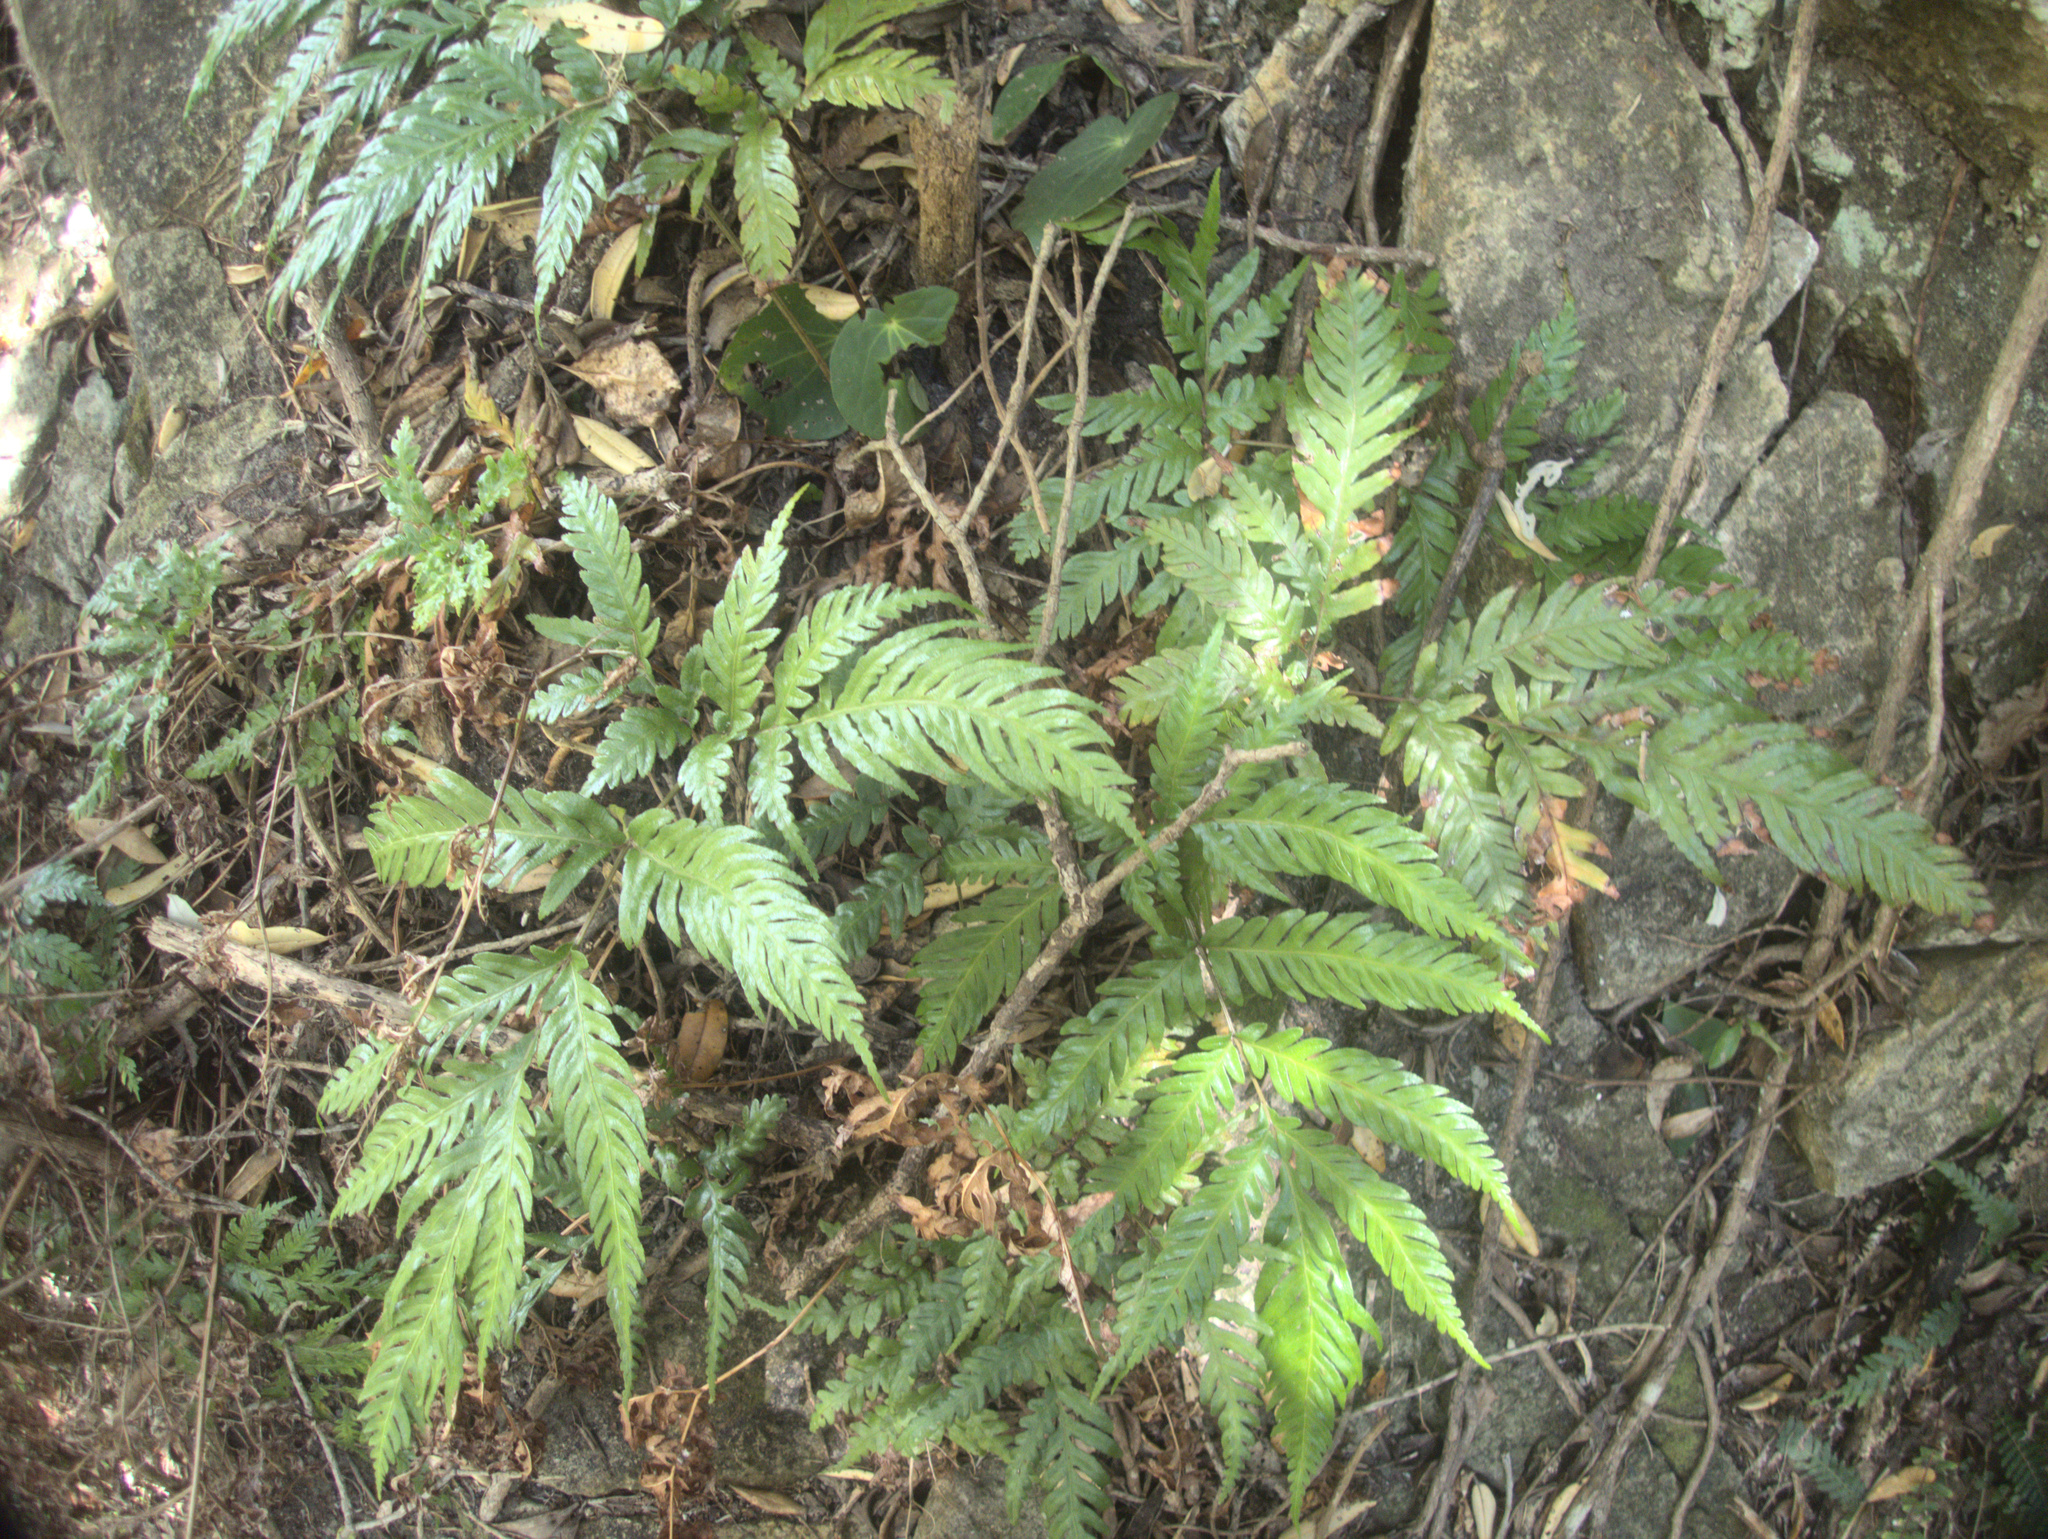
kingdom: Plantae
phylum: Tracheophyta
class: Polypodiopsida
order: Polypodiales
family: Pteridaceae
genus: Pteris
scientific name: Pteris carsei
